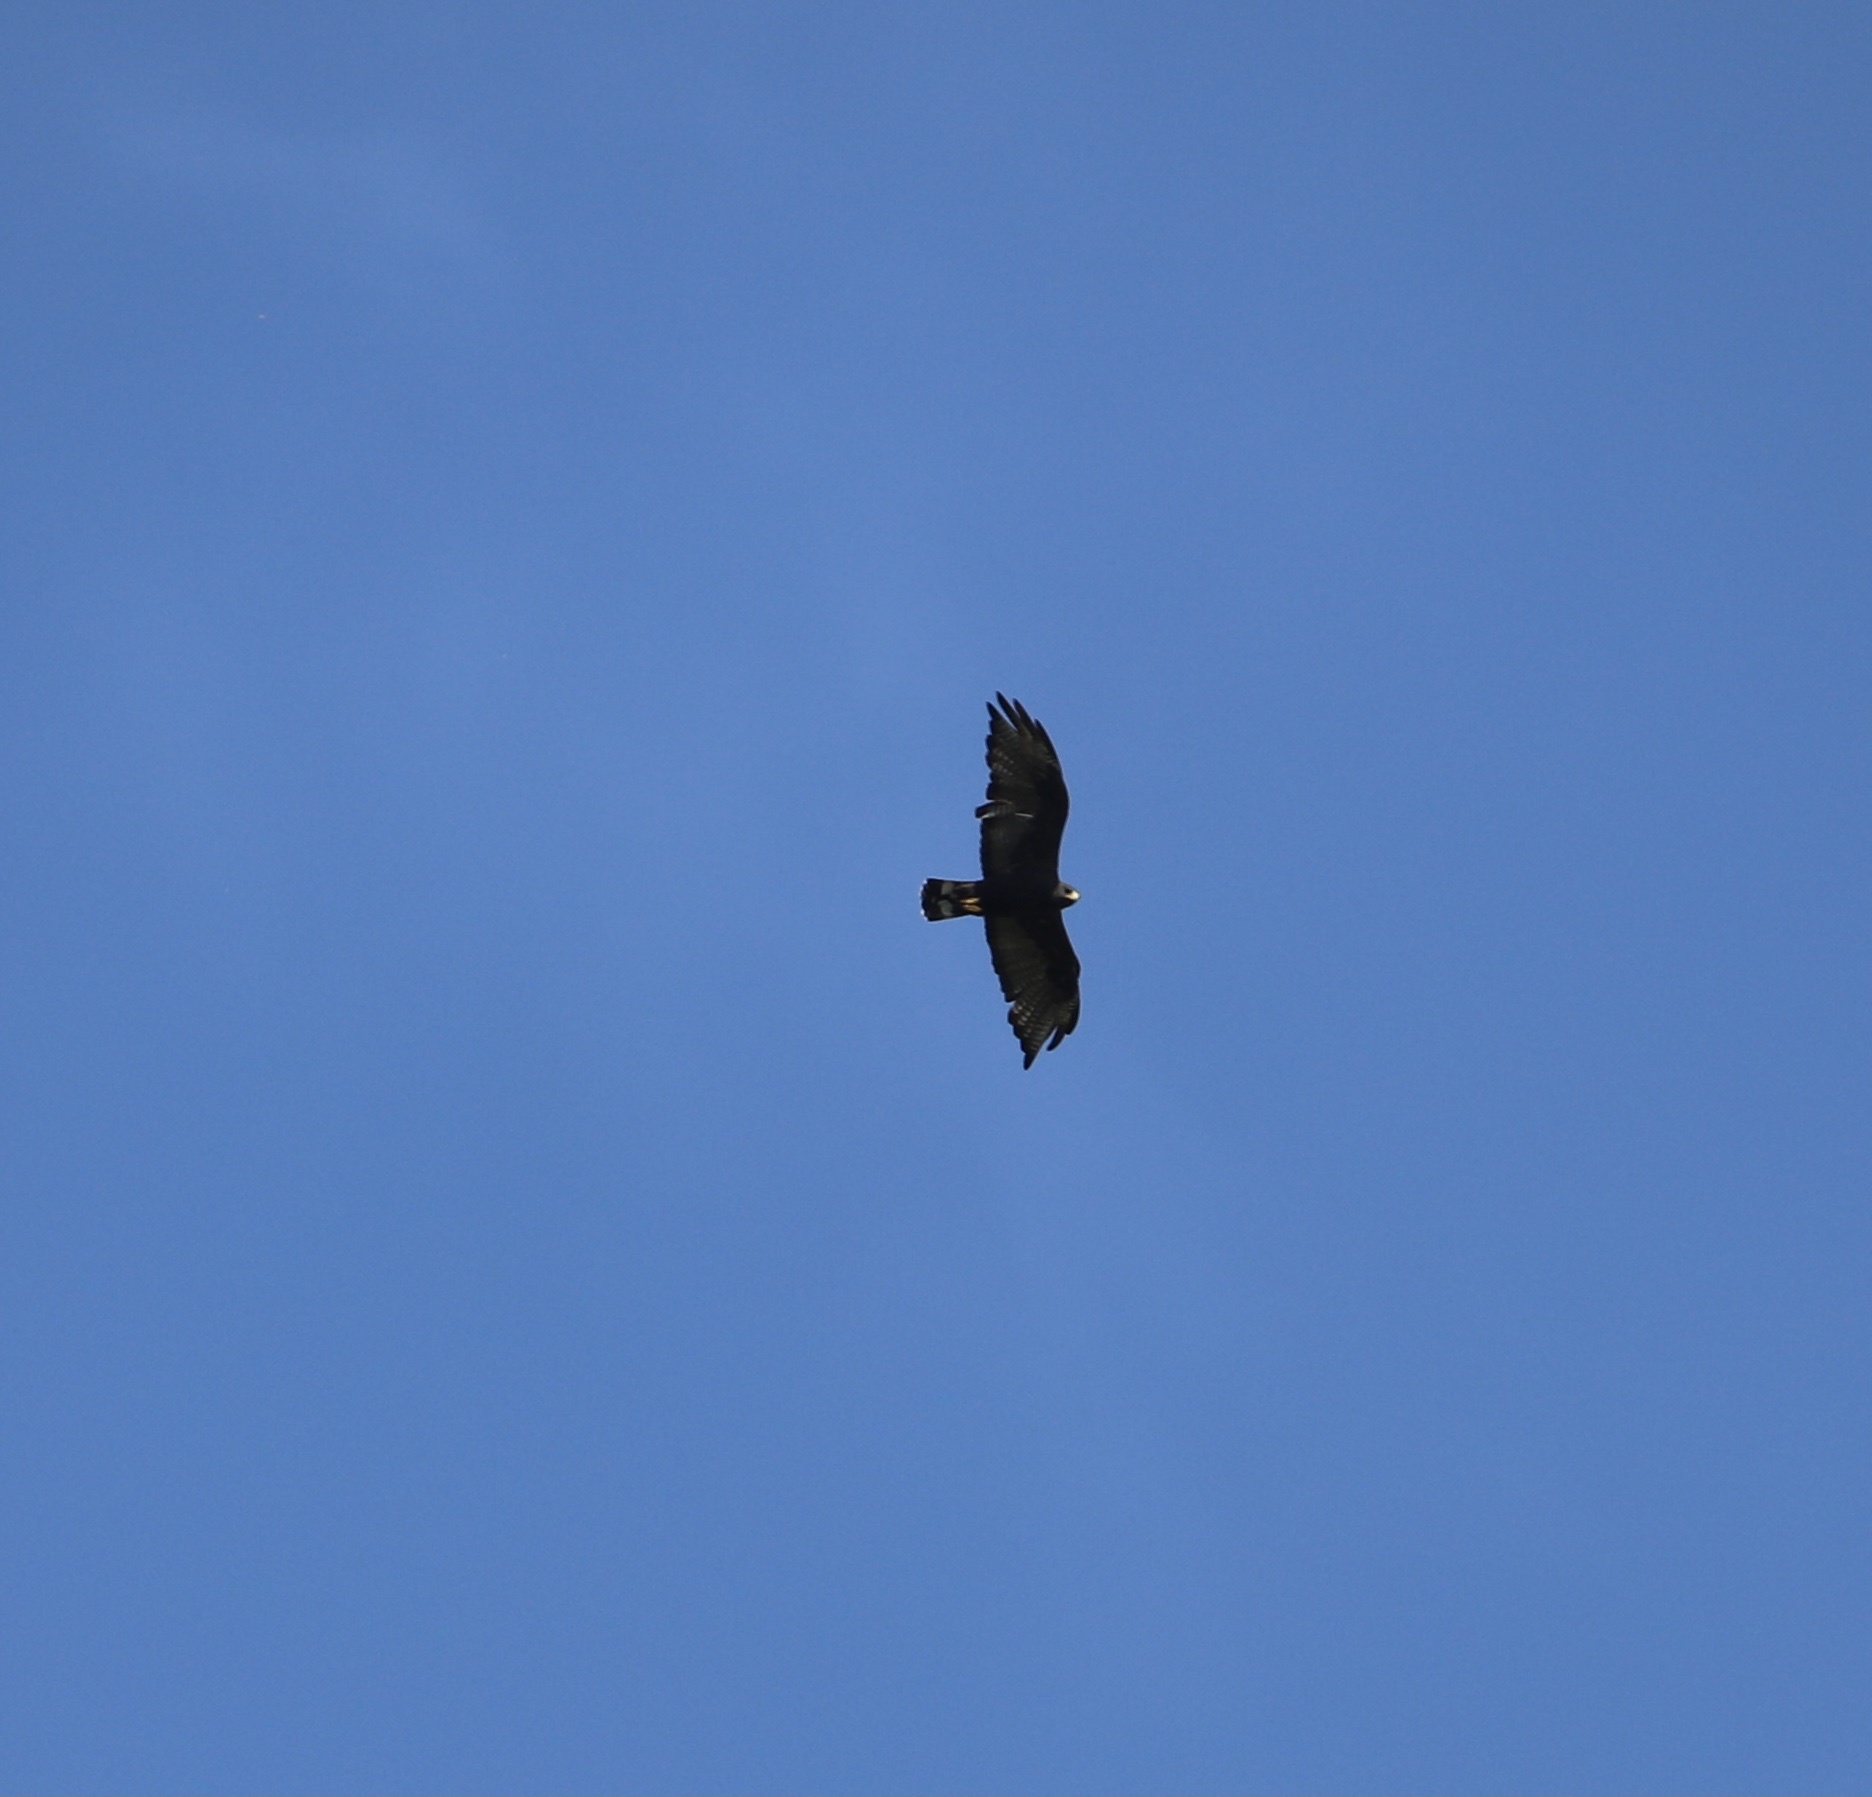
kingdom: Animalia
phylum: Chordata
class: Aves
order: Accipitriformes
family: Accipitridae
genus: Buteo
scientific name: Buteo albonotatus
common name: Zone-tailed hawk
